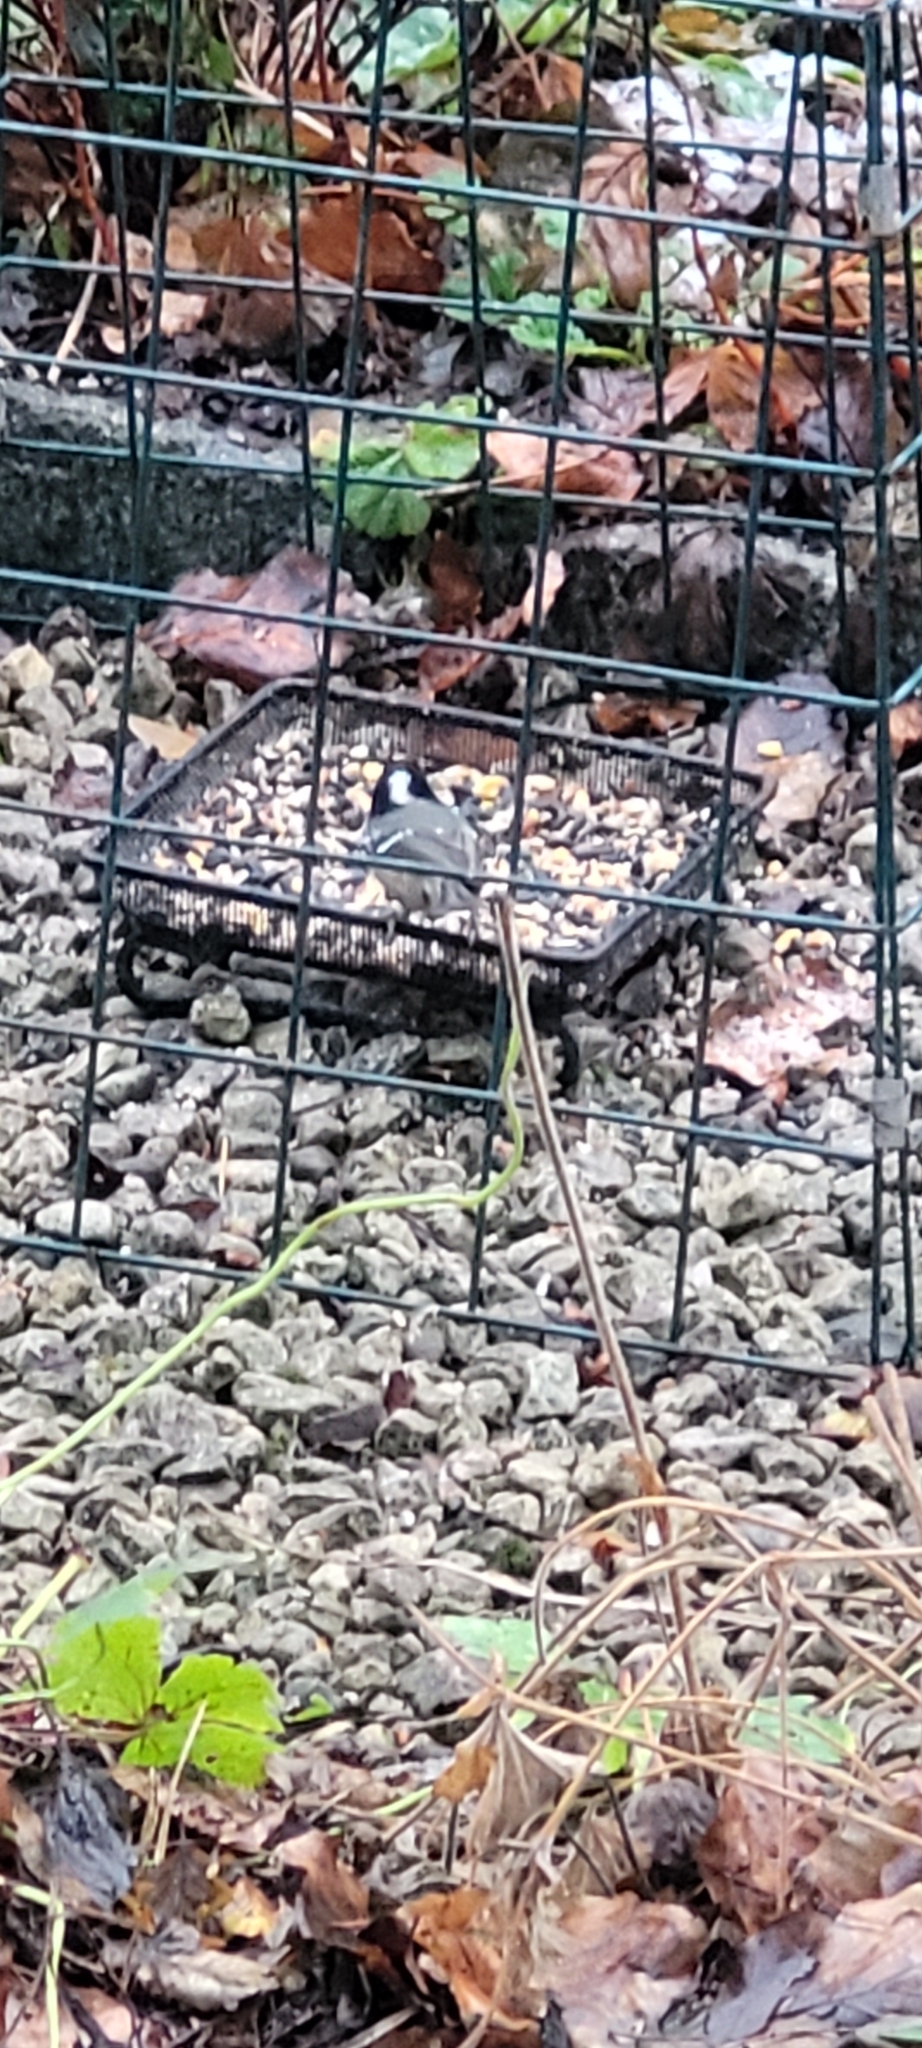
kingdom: Animalia
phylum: Chordata
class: Aves
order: Passeriformes
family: Paridae
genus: Periparus
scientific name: Periparus ater
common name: Coal tit
